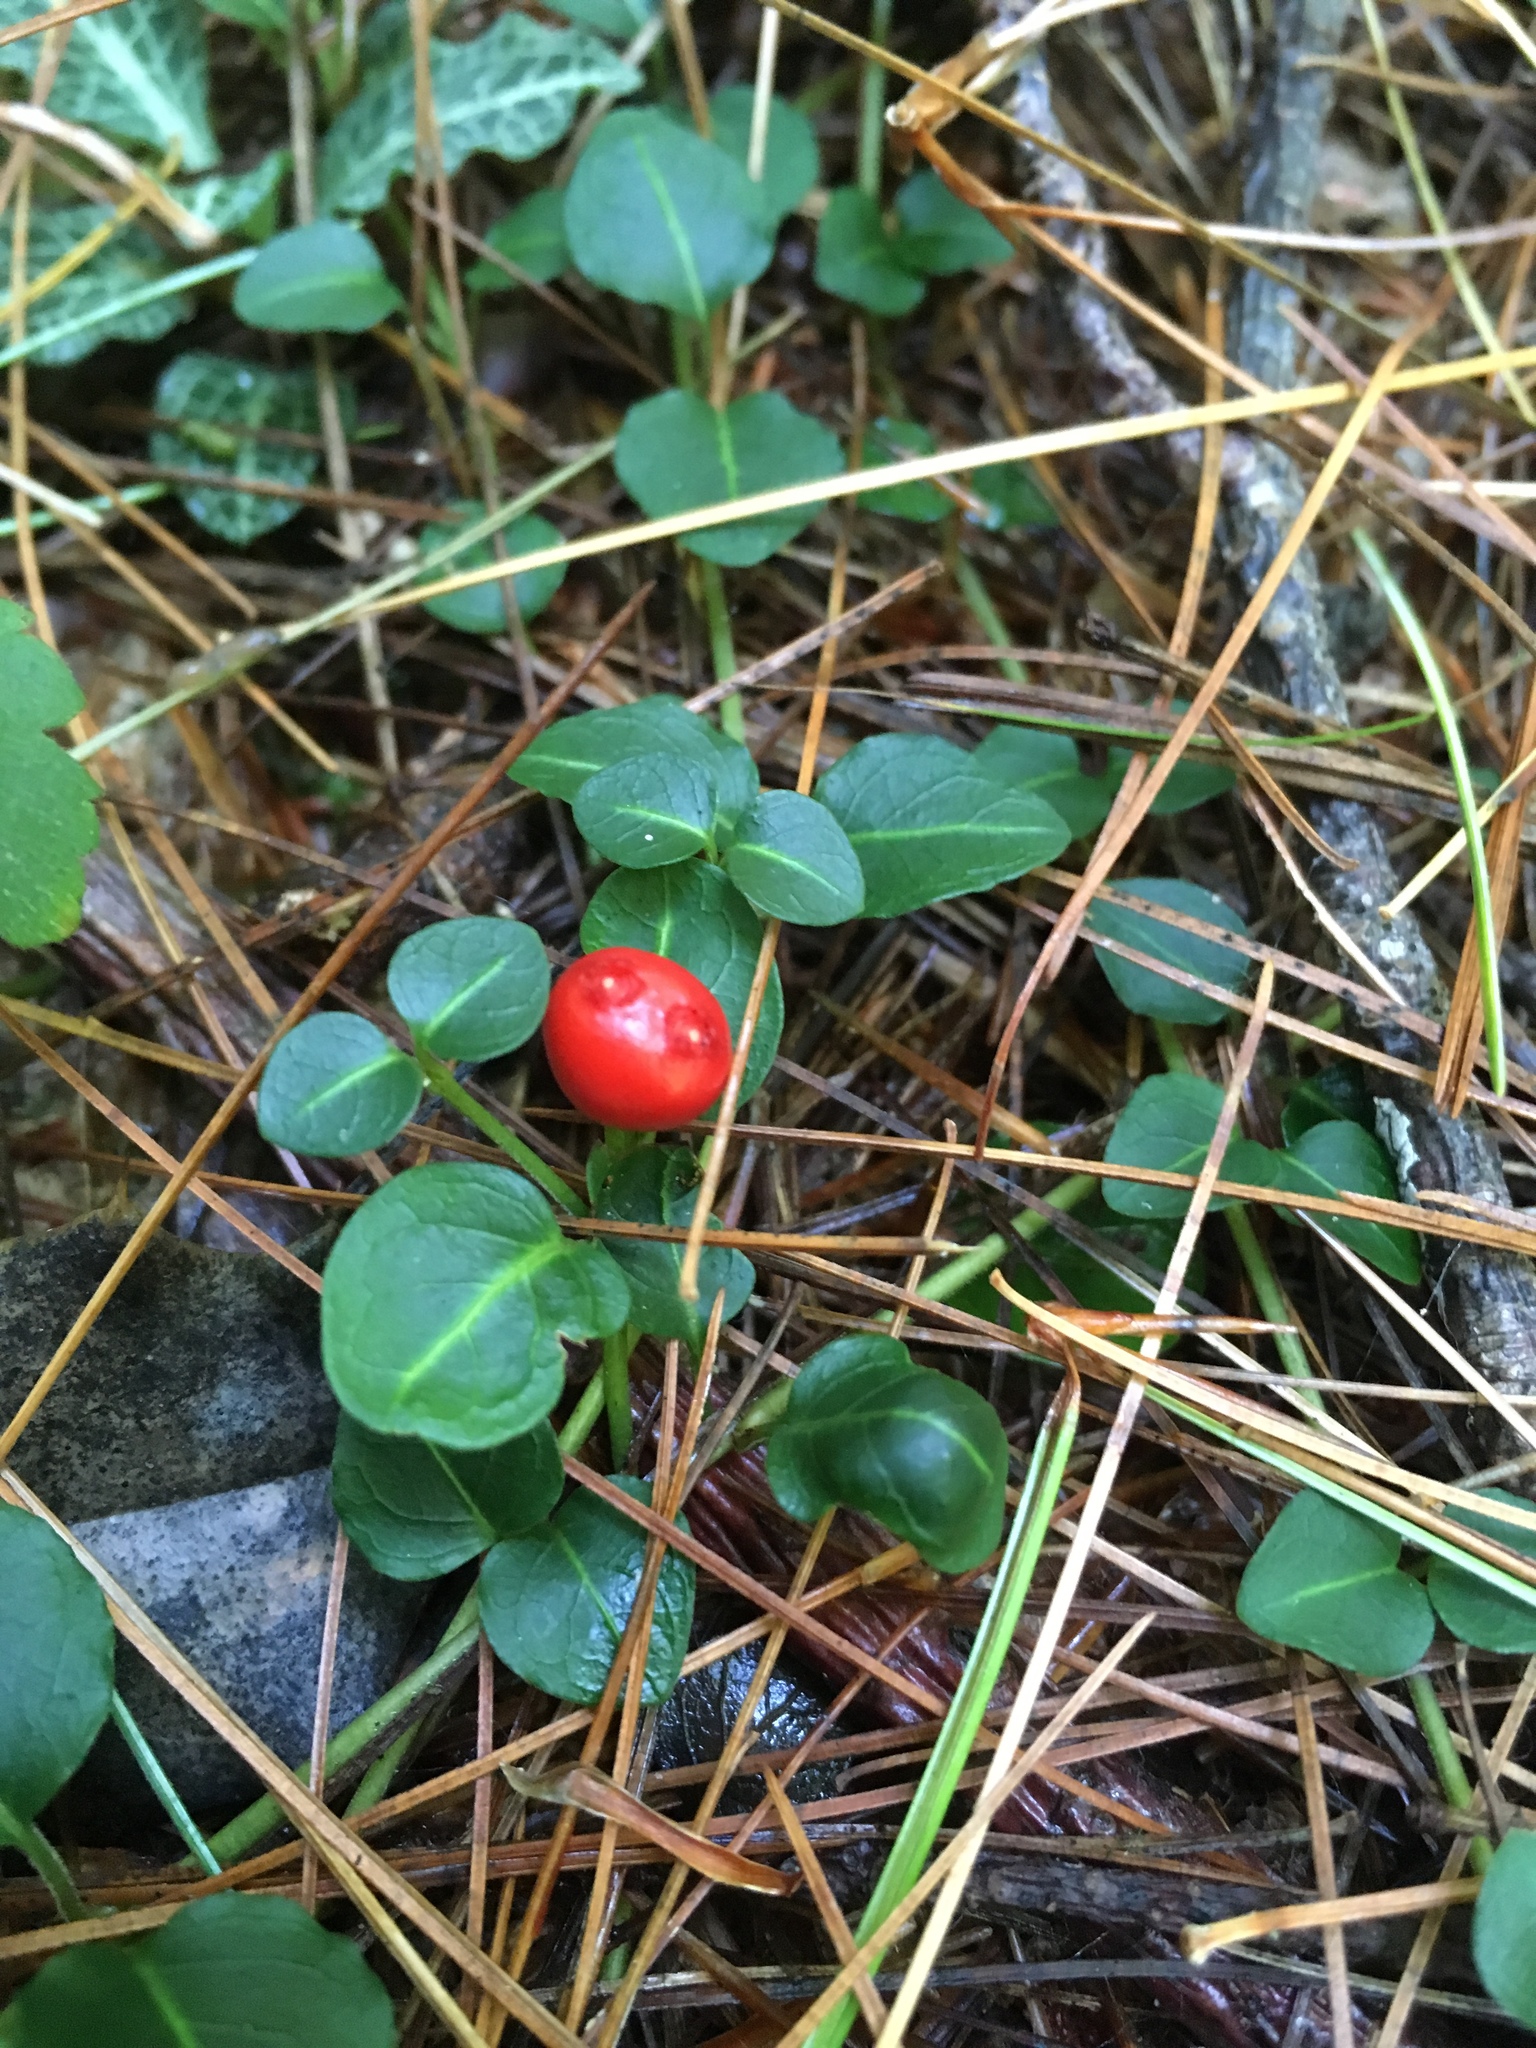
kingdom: Plantae
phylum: Tracheophyta
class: Magnoliopsida
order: Gentianales
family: Rubiaceae
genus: Mitchella
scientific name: Mitchella repens
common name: Partridge-berry
